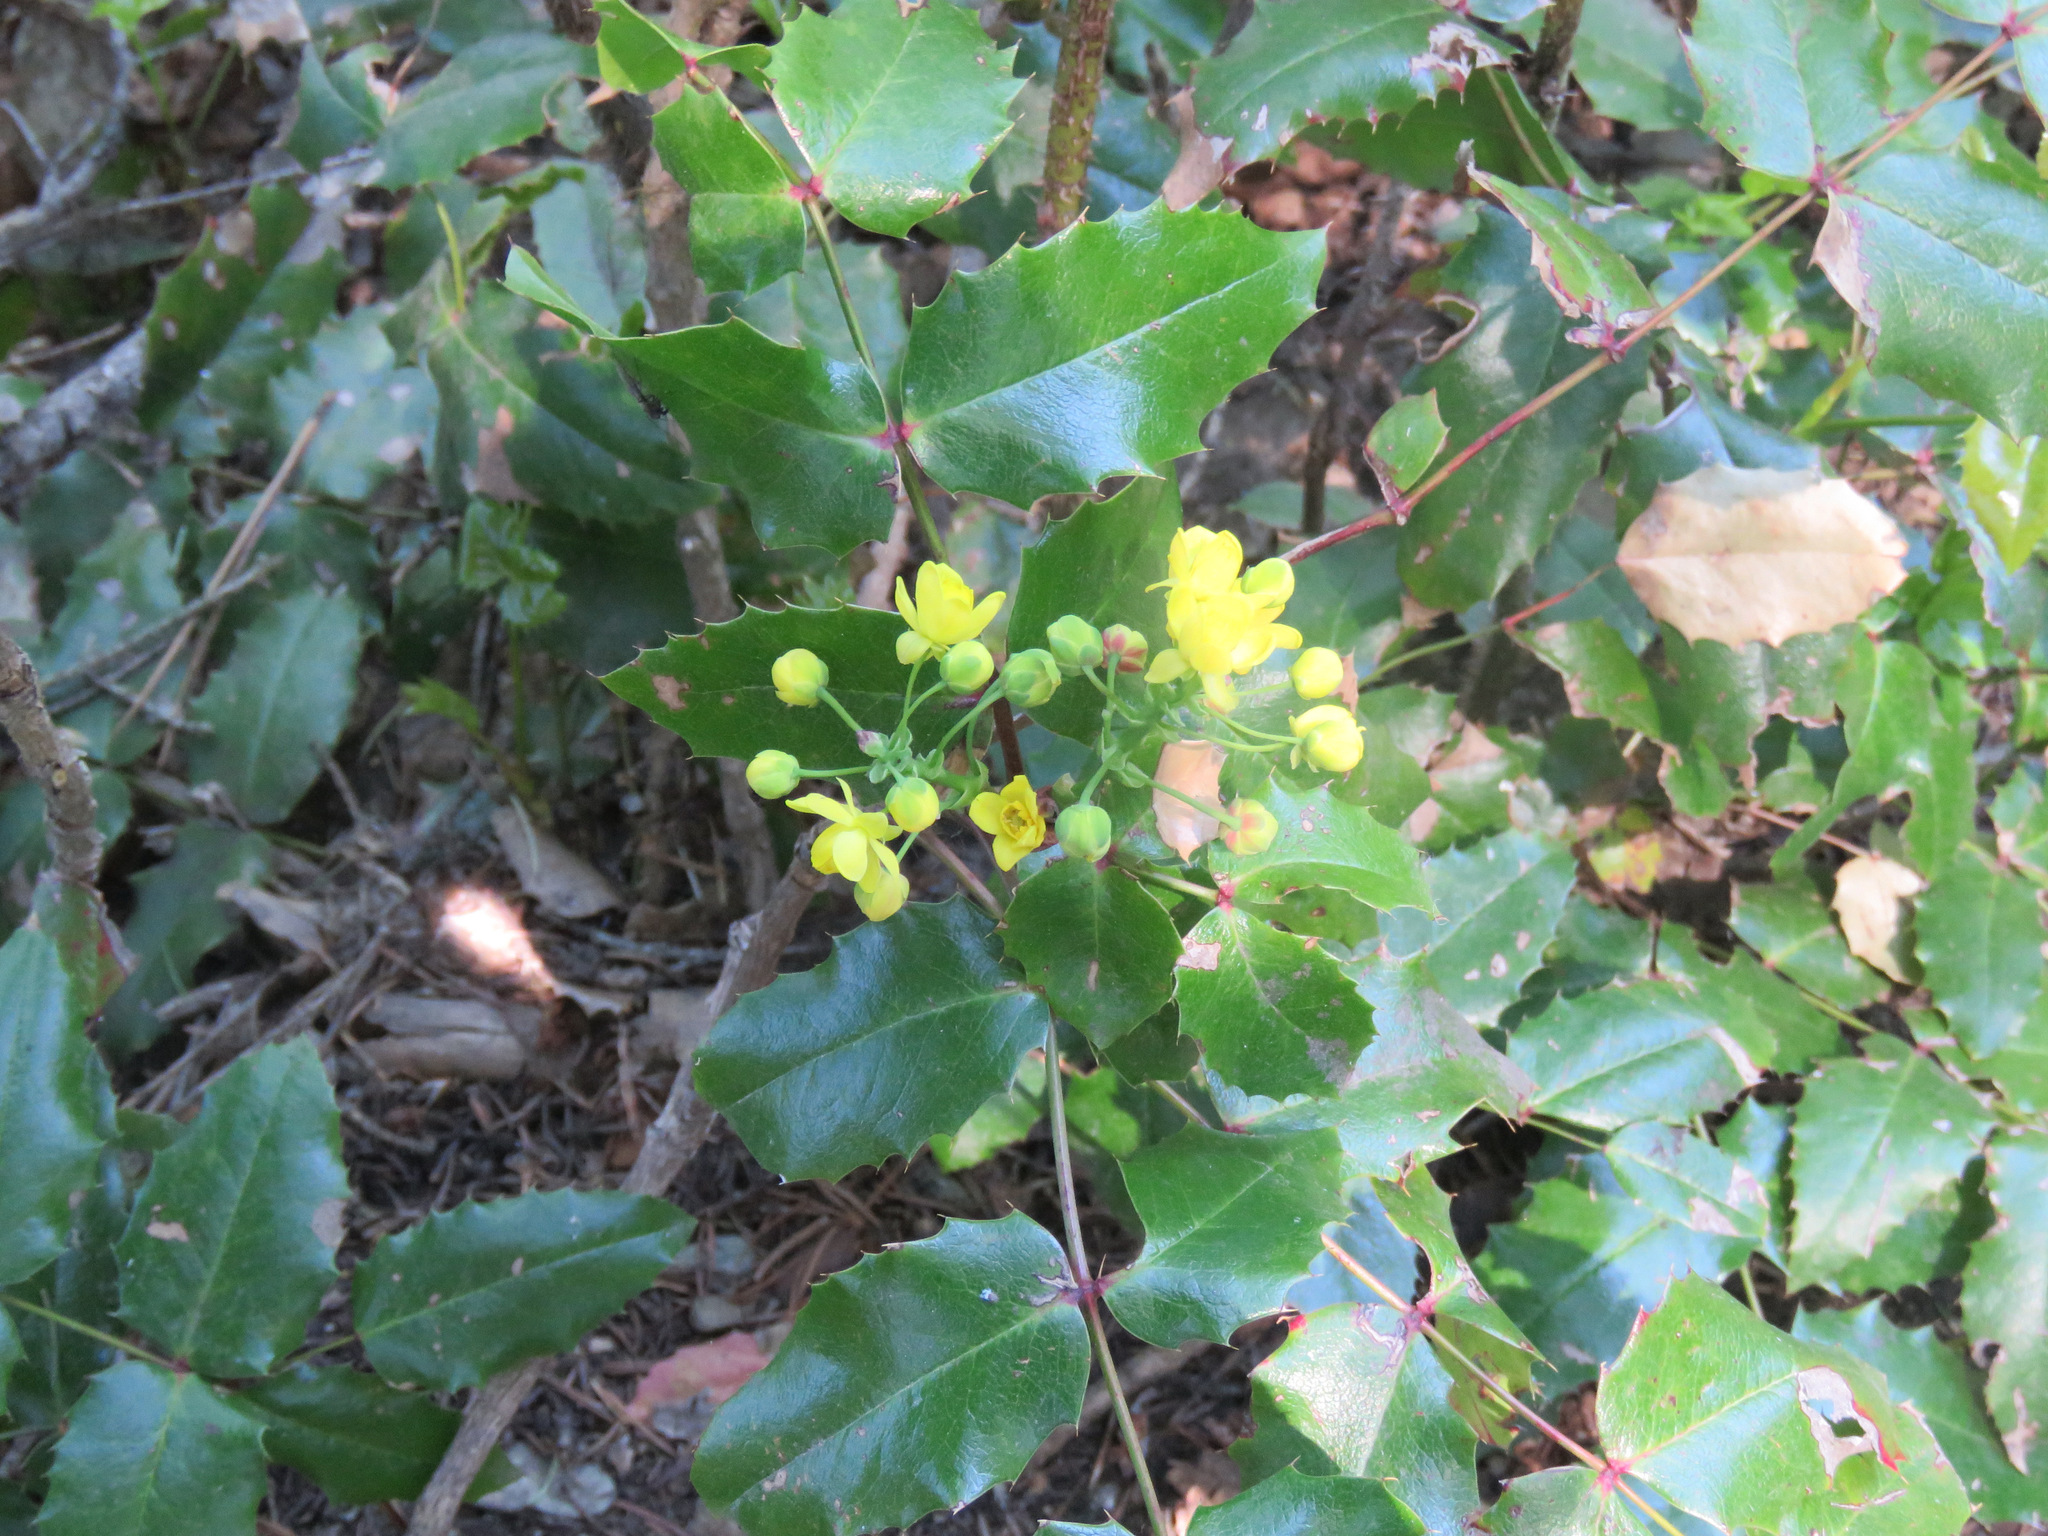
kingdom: Plantae
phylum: Tracheophyta
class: Magnoliopsida
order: Ranunculales
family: Berberidaceae
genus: Mahonia
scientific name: Mahonia aquifolium
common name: Oregon-grape
